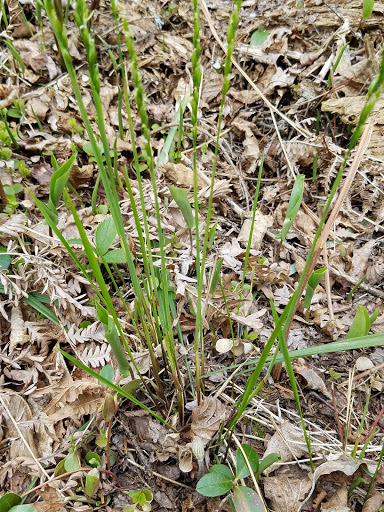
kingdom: Plantae
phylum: Tracheophyta
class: Liliopsida
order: Poales
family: Poaceae
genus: Oryzopsis
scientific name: Oryzopsis asperifolia
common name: Rough-leaved mountain rice
